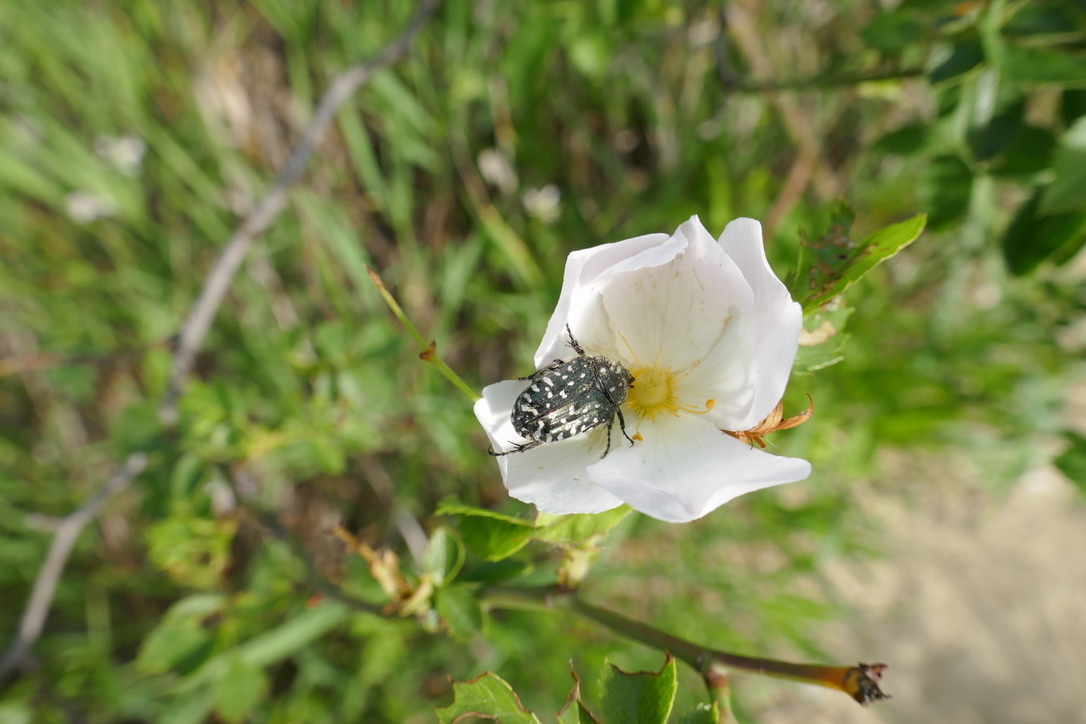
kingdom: Animalia
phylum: Arthropoda
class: Insecta
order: Coleoptera
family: Scarabaeidae
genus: Oxythyrea
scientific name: Oxythyrea funesta
